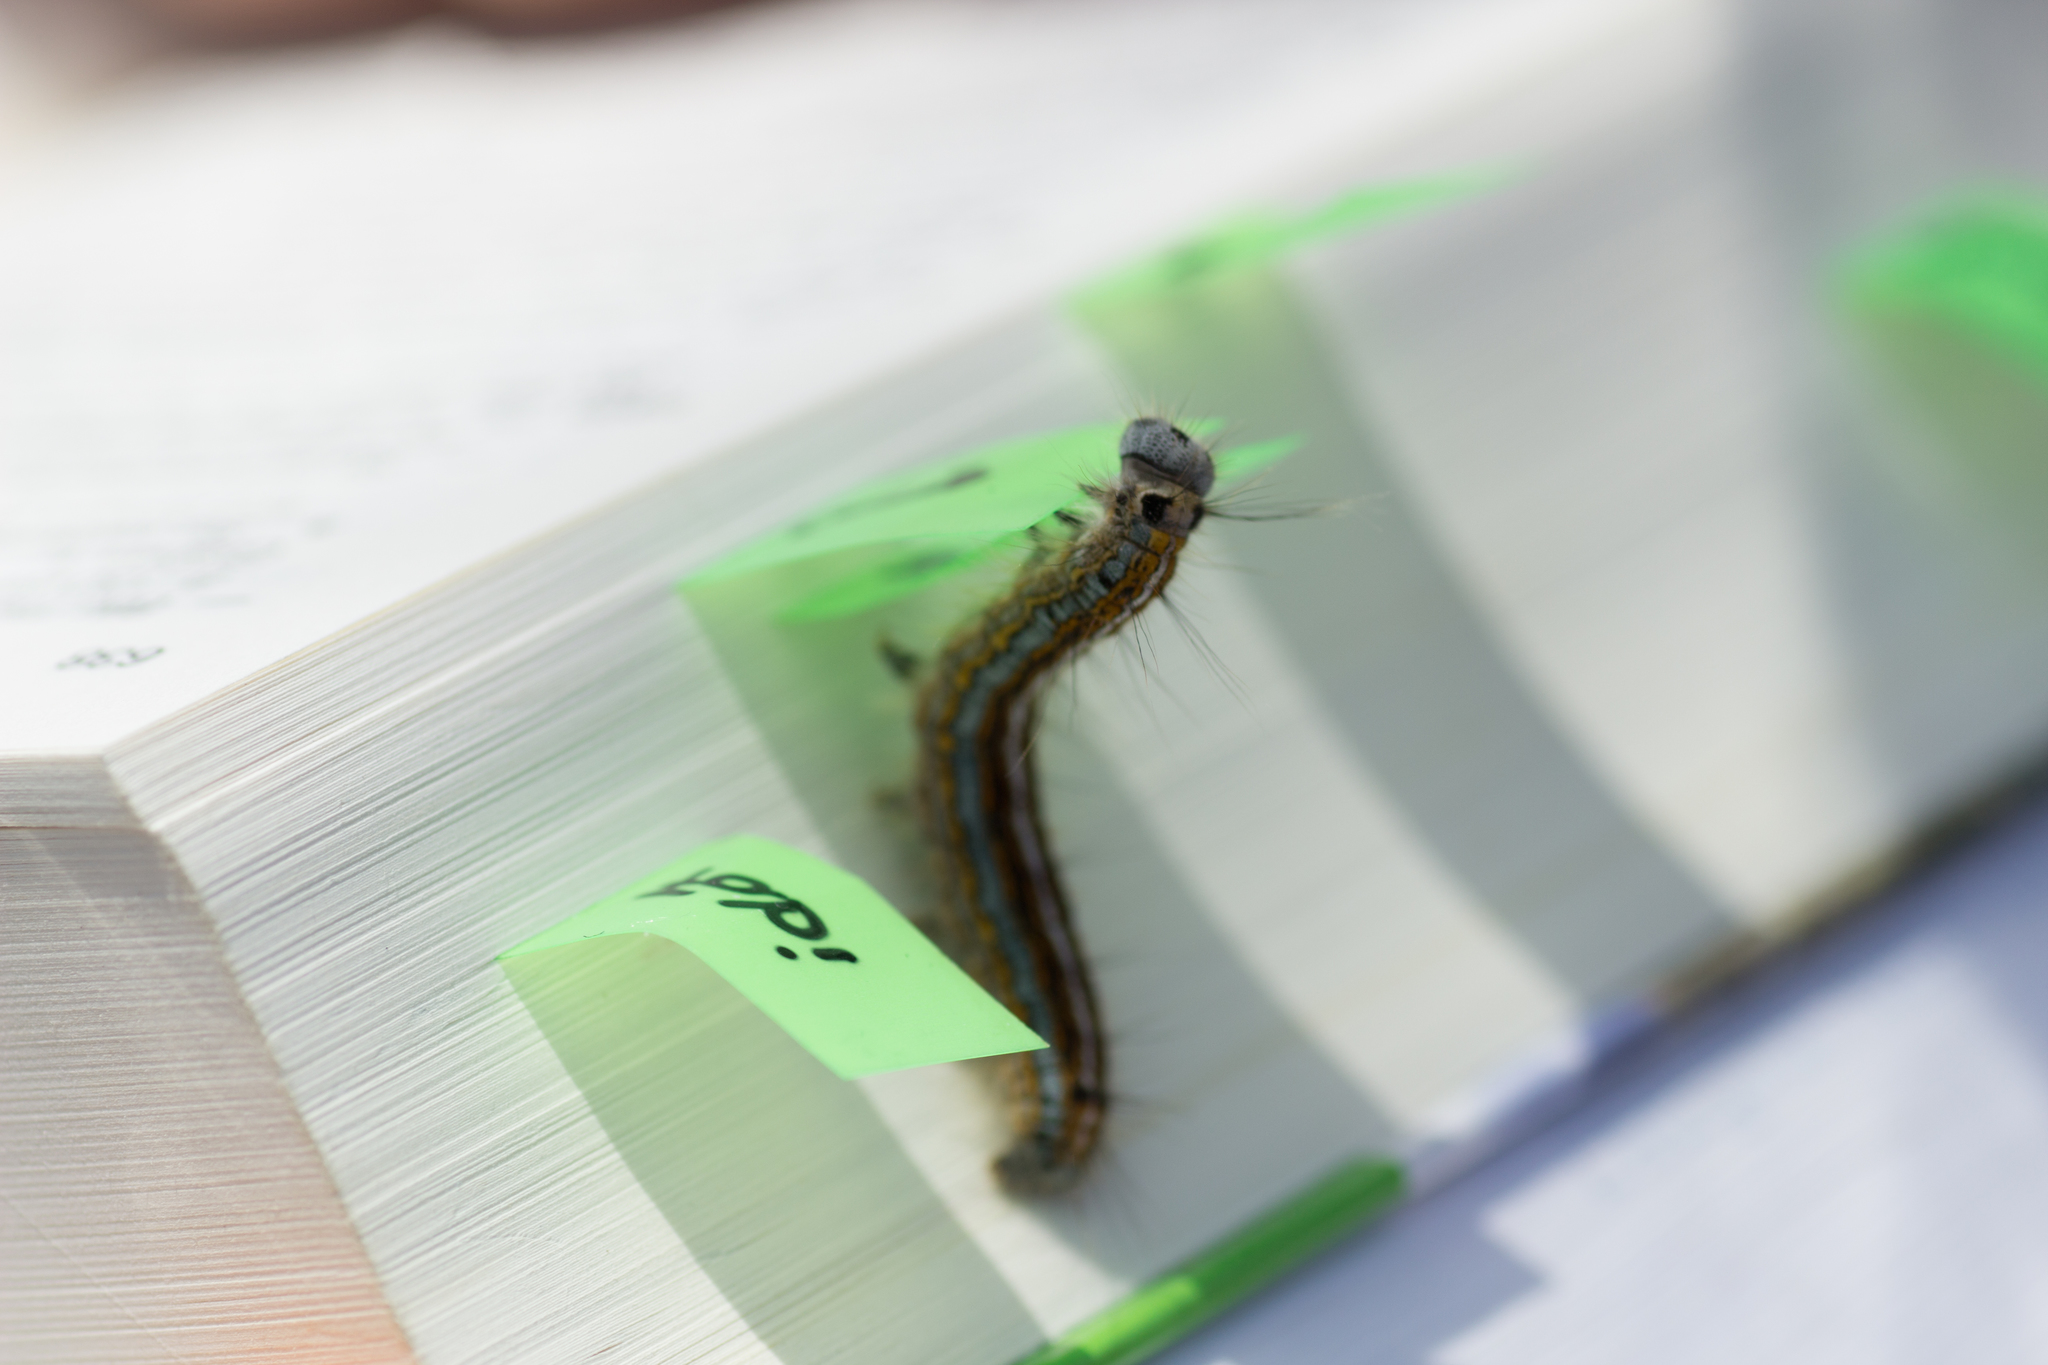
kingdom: Animalia
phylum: Arthropoda
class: Insecta
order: Lepidoptera
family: Lasiocampidae
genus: Malacosoma
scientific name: Malacosoma neustria
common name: The lackey
